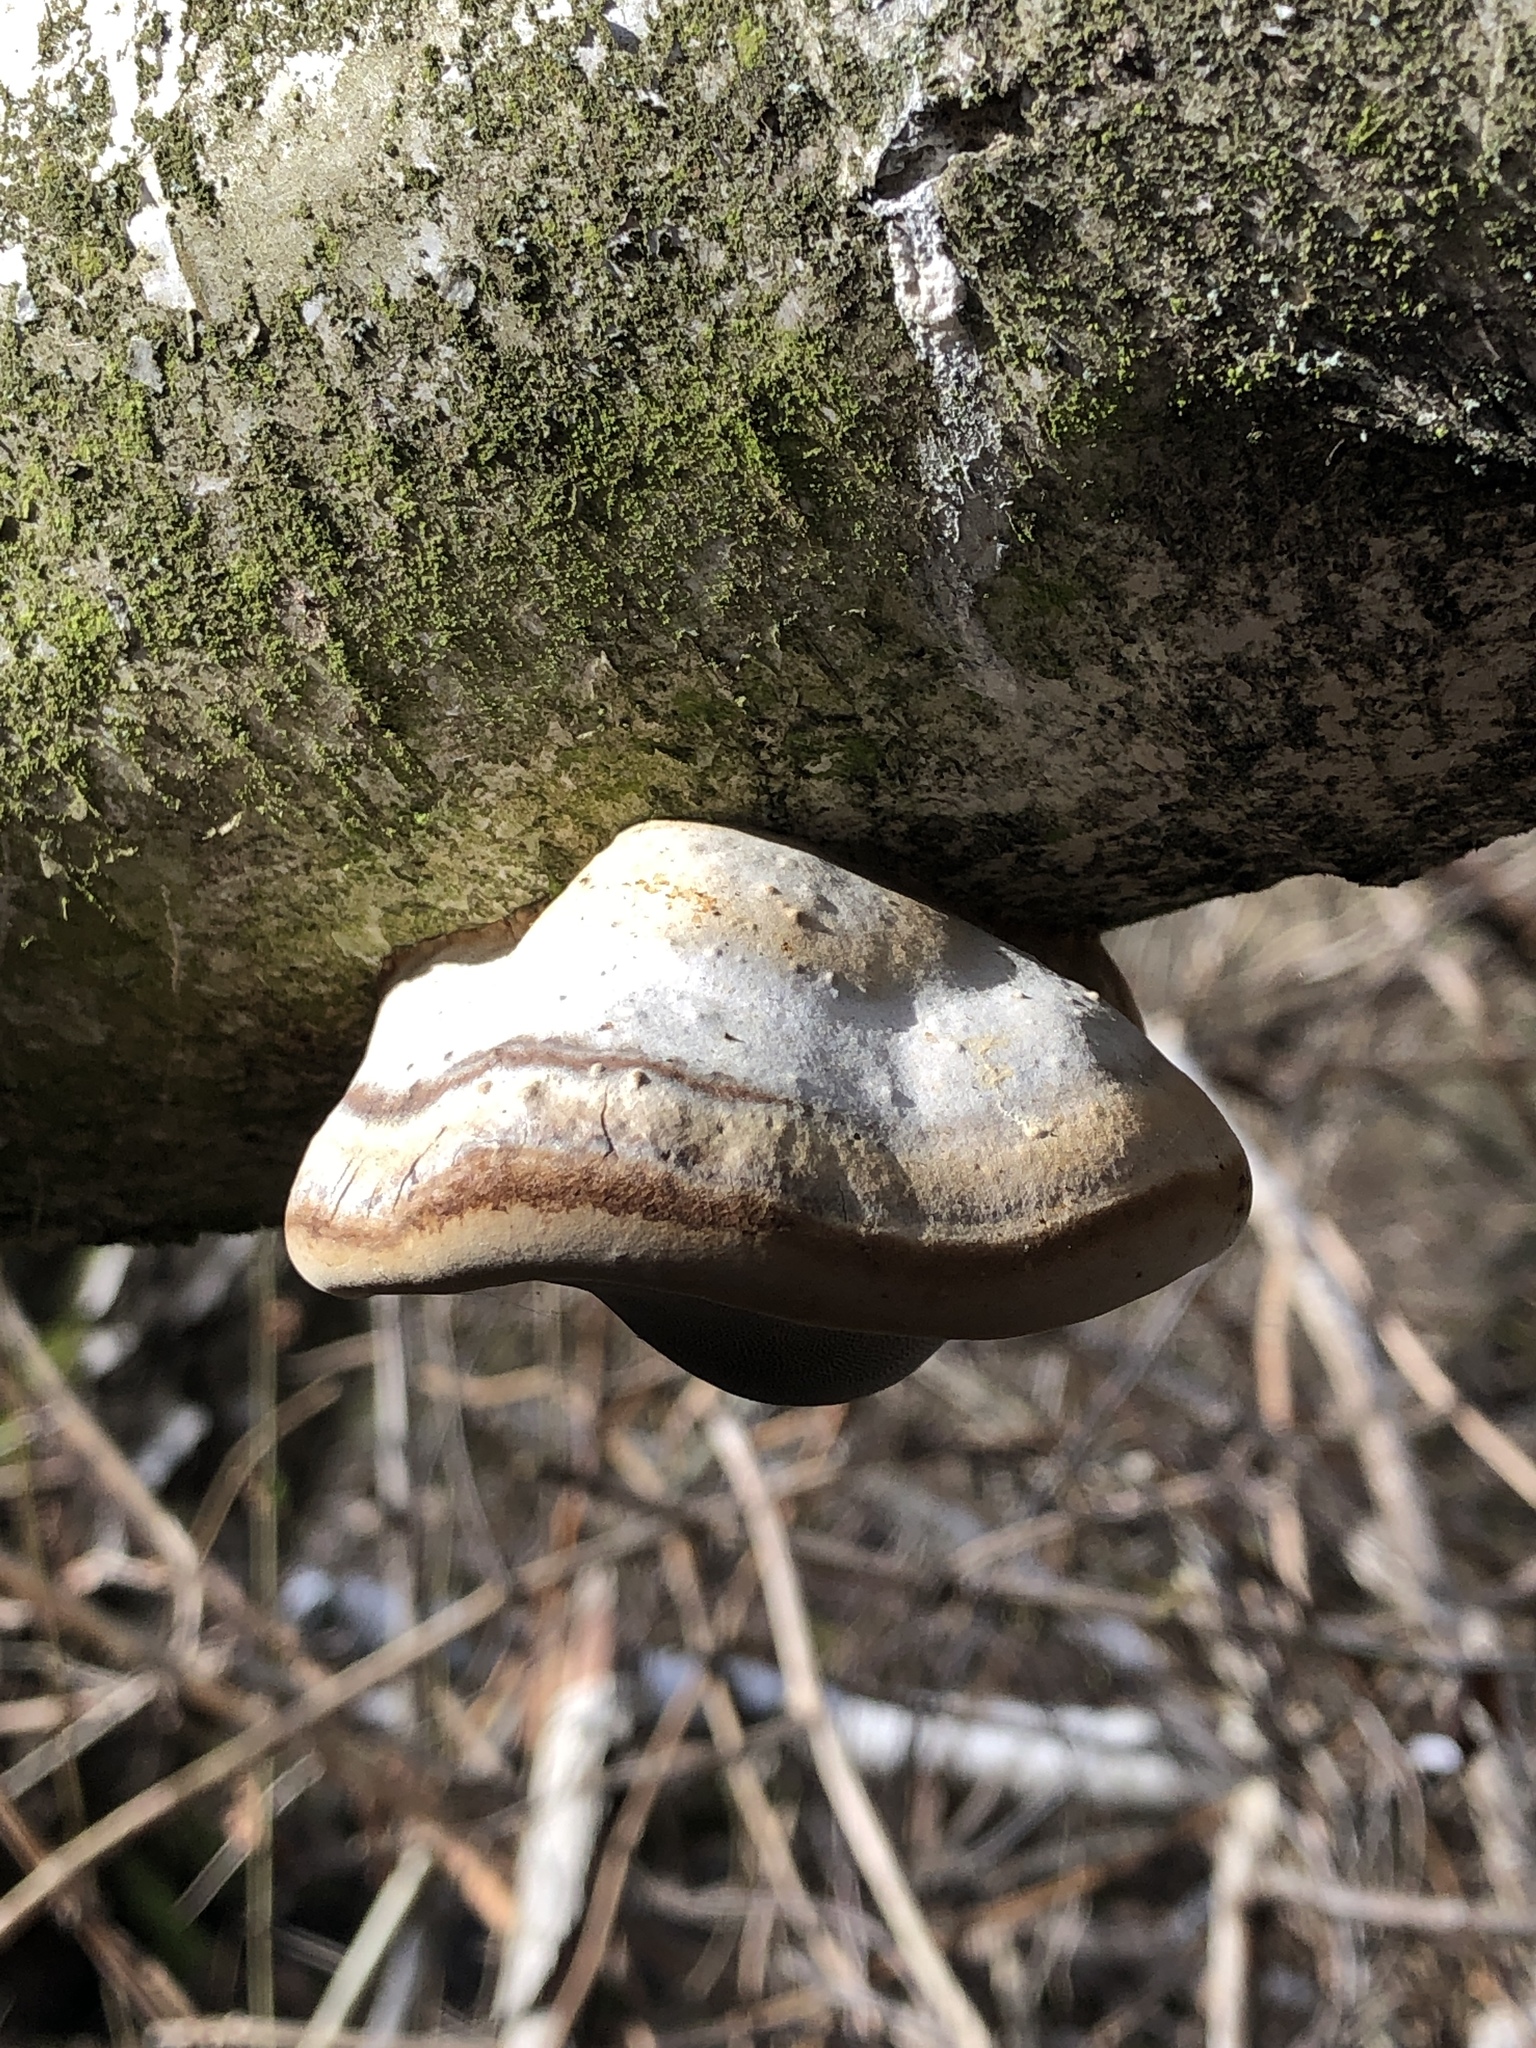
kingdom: Fungi
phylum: Basidiomycota
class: Agaricomycetes
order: Polyporales
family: Polyporaceae
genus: Fomes
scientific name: Fomes fomentarius
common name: Hoof fungus
